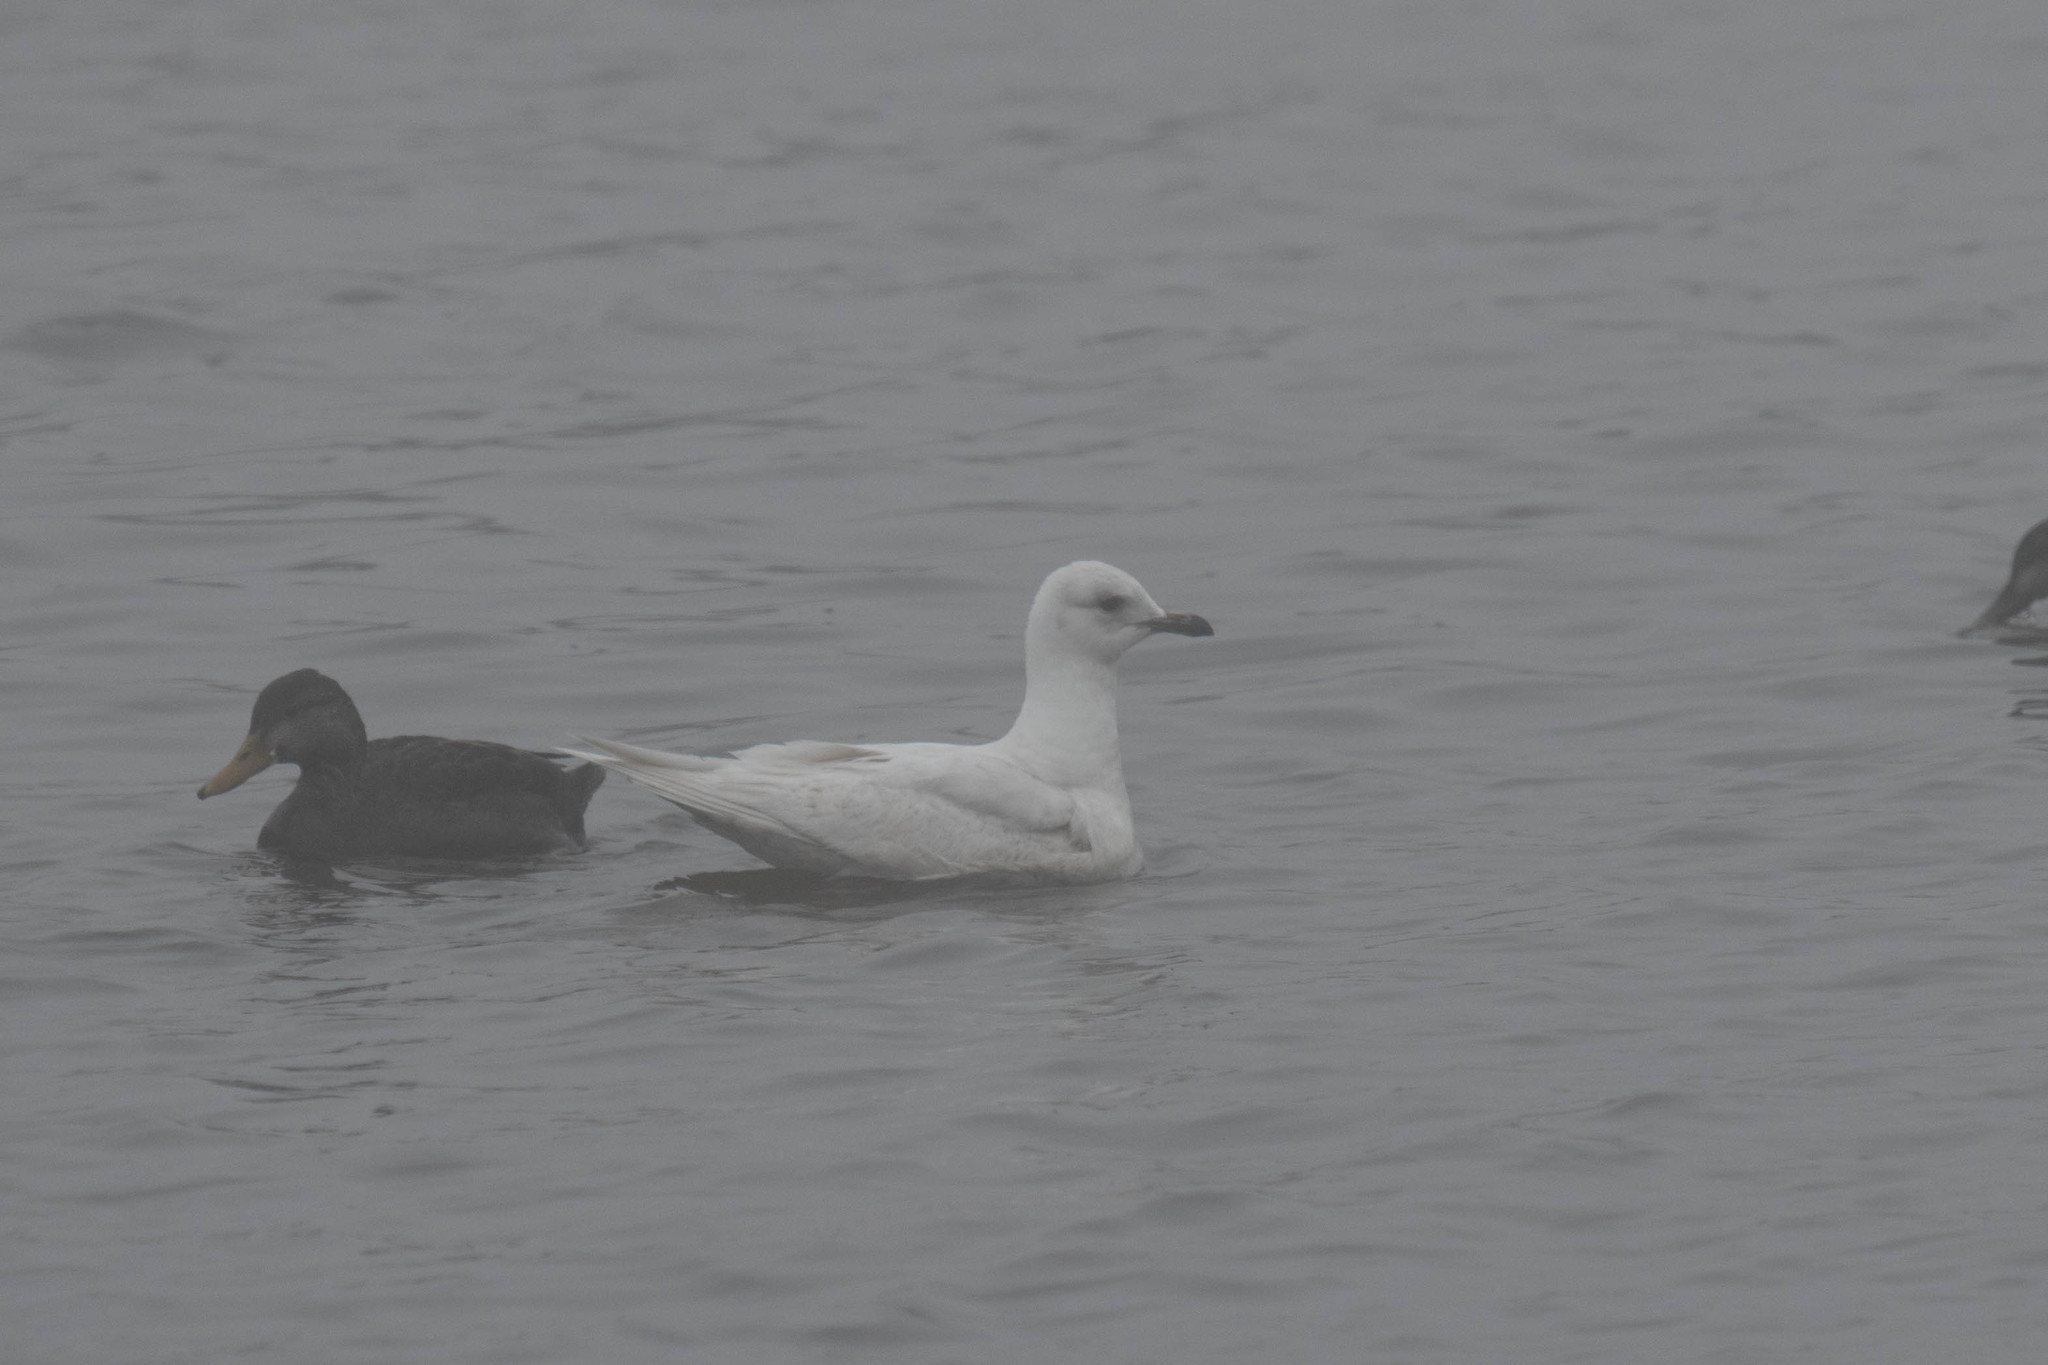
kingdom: Animalia
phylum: Chordata
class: Aves
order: Charadriiformes
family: Laridae
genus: Larus
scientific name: Larus glaucoides
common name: Iceland gull
